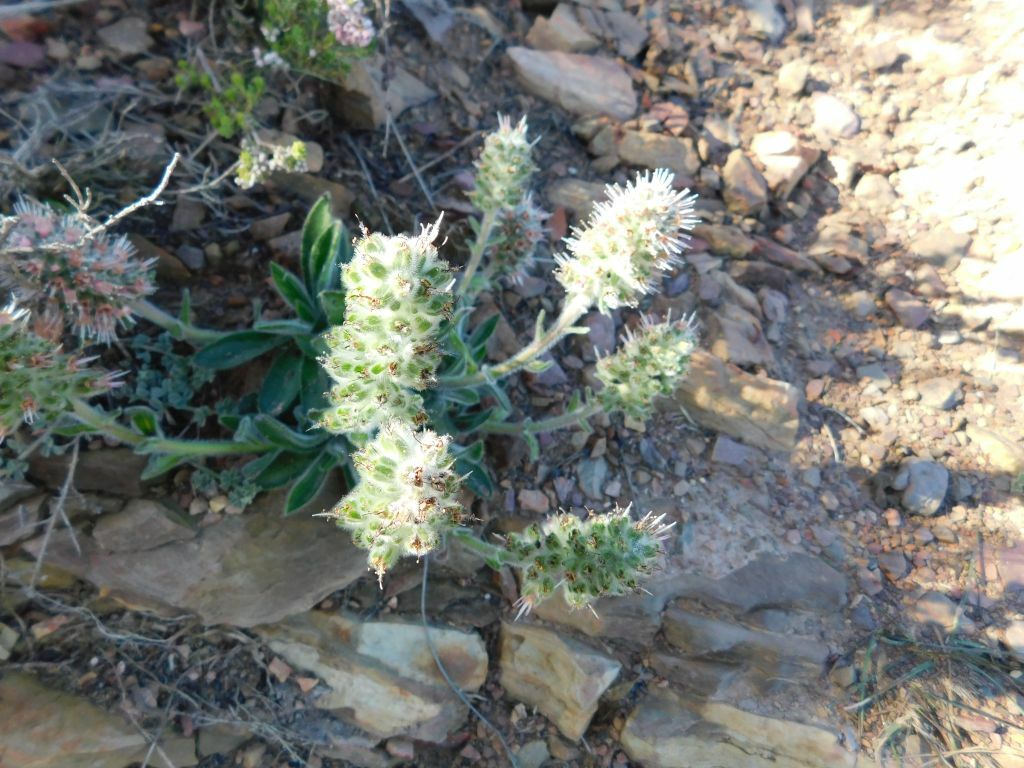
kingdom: Plantae
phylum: Tracheophyta
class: Magnoliopsida
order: Boraginales
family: Boraginaceae
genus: Lobostemon
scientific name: Lobostemon ecklonianus
